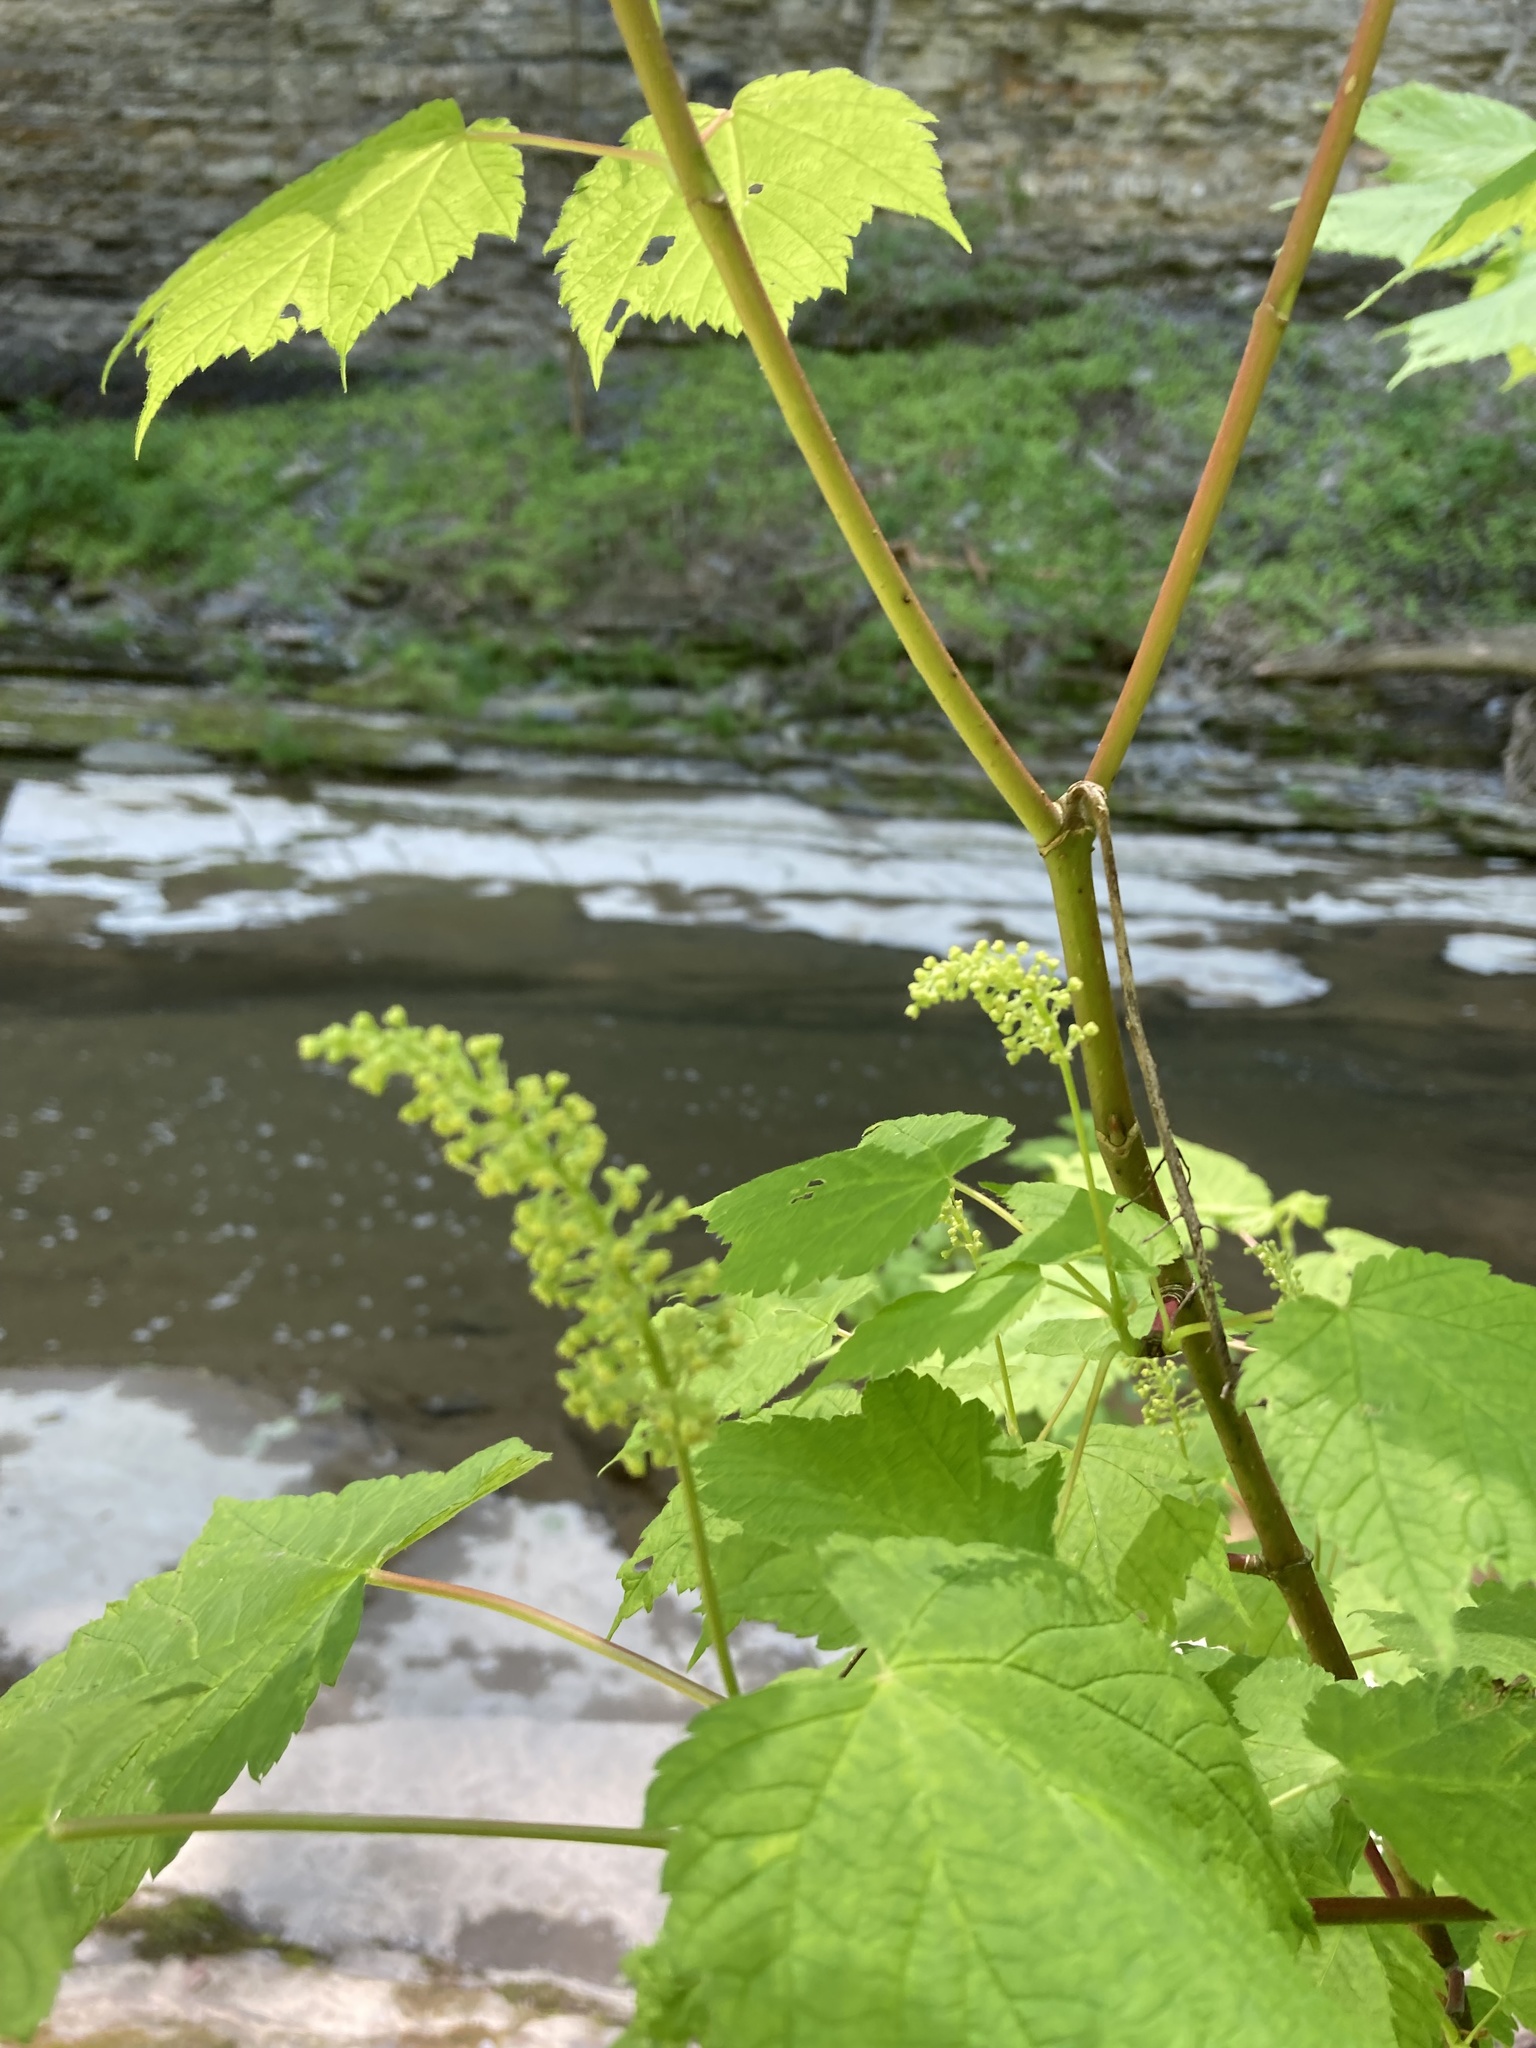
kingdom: Plantae
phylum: Tracheophyta
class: Magnoliopsida
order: Sapindales
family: Sapindaceae
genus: Acer
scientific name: Acer spicatum
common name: Mountain maple
